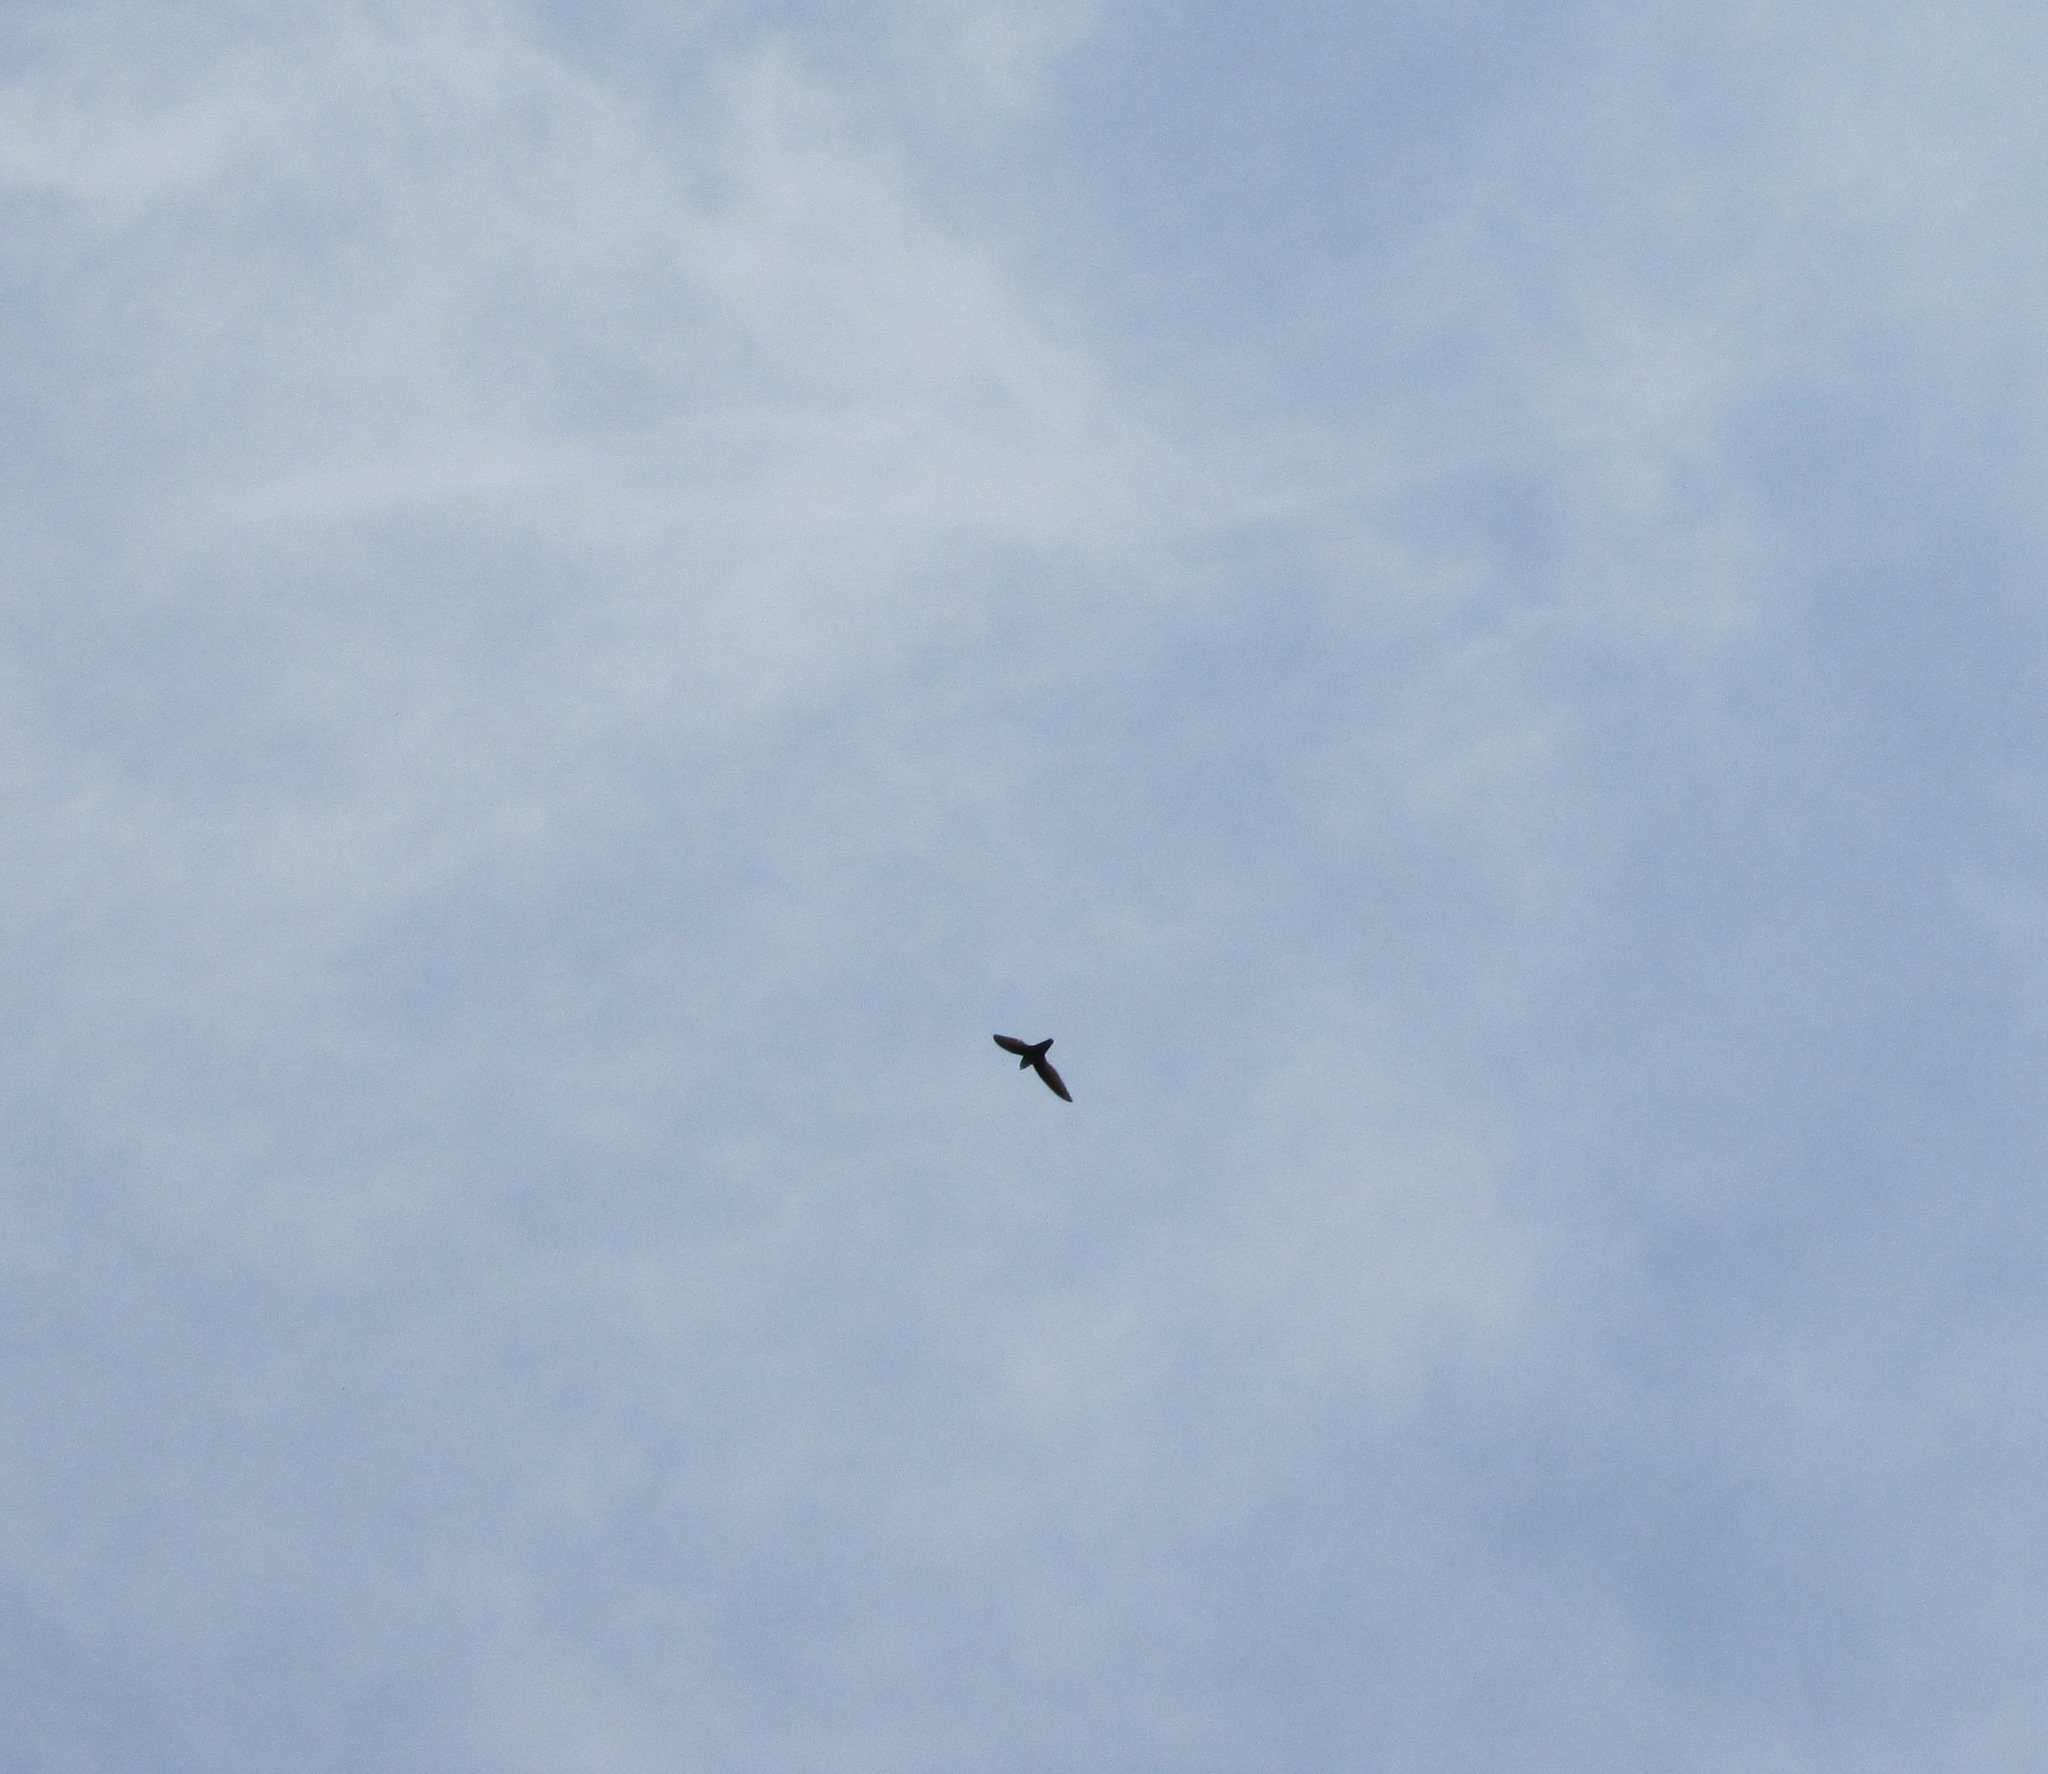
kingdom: Animalia
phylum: Chordata
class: Aves
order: Apodiformes
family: Apodidae
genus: Chaetura
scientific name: Chaetura pelagica
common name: Chimney swift
